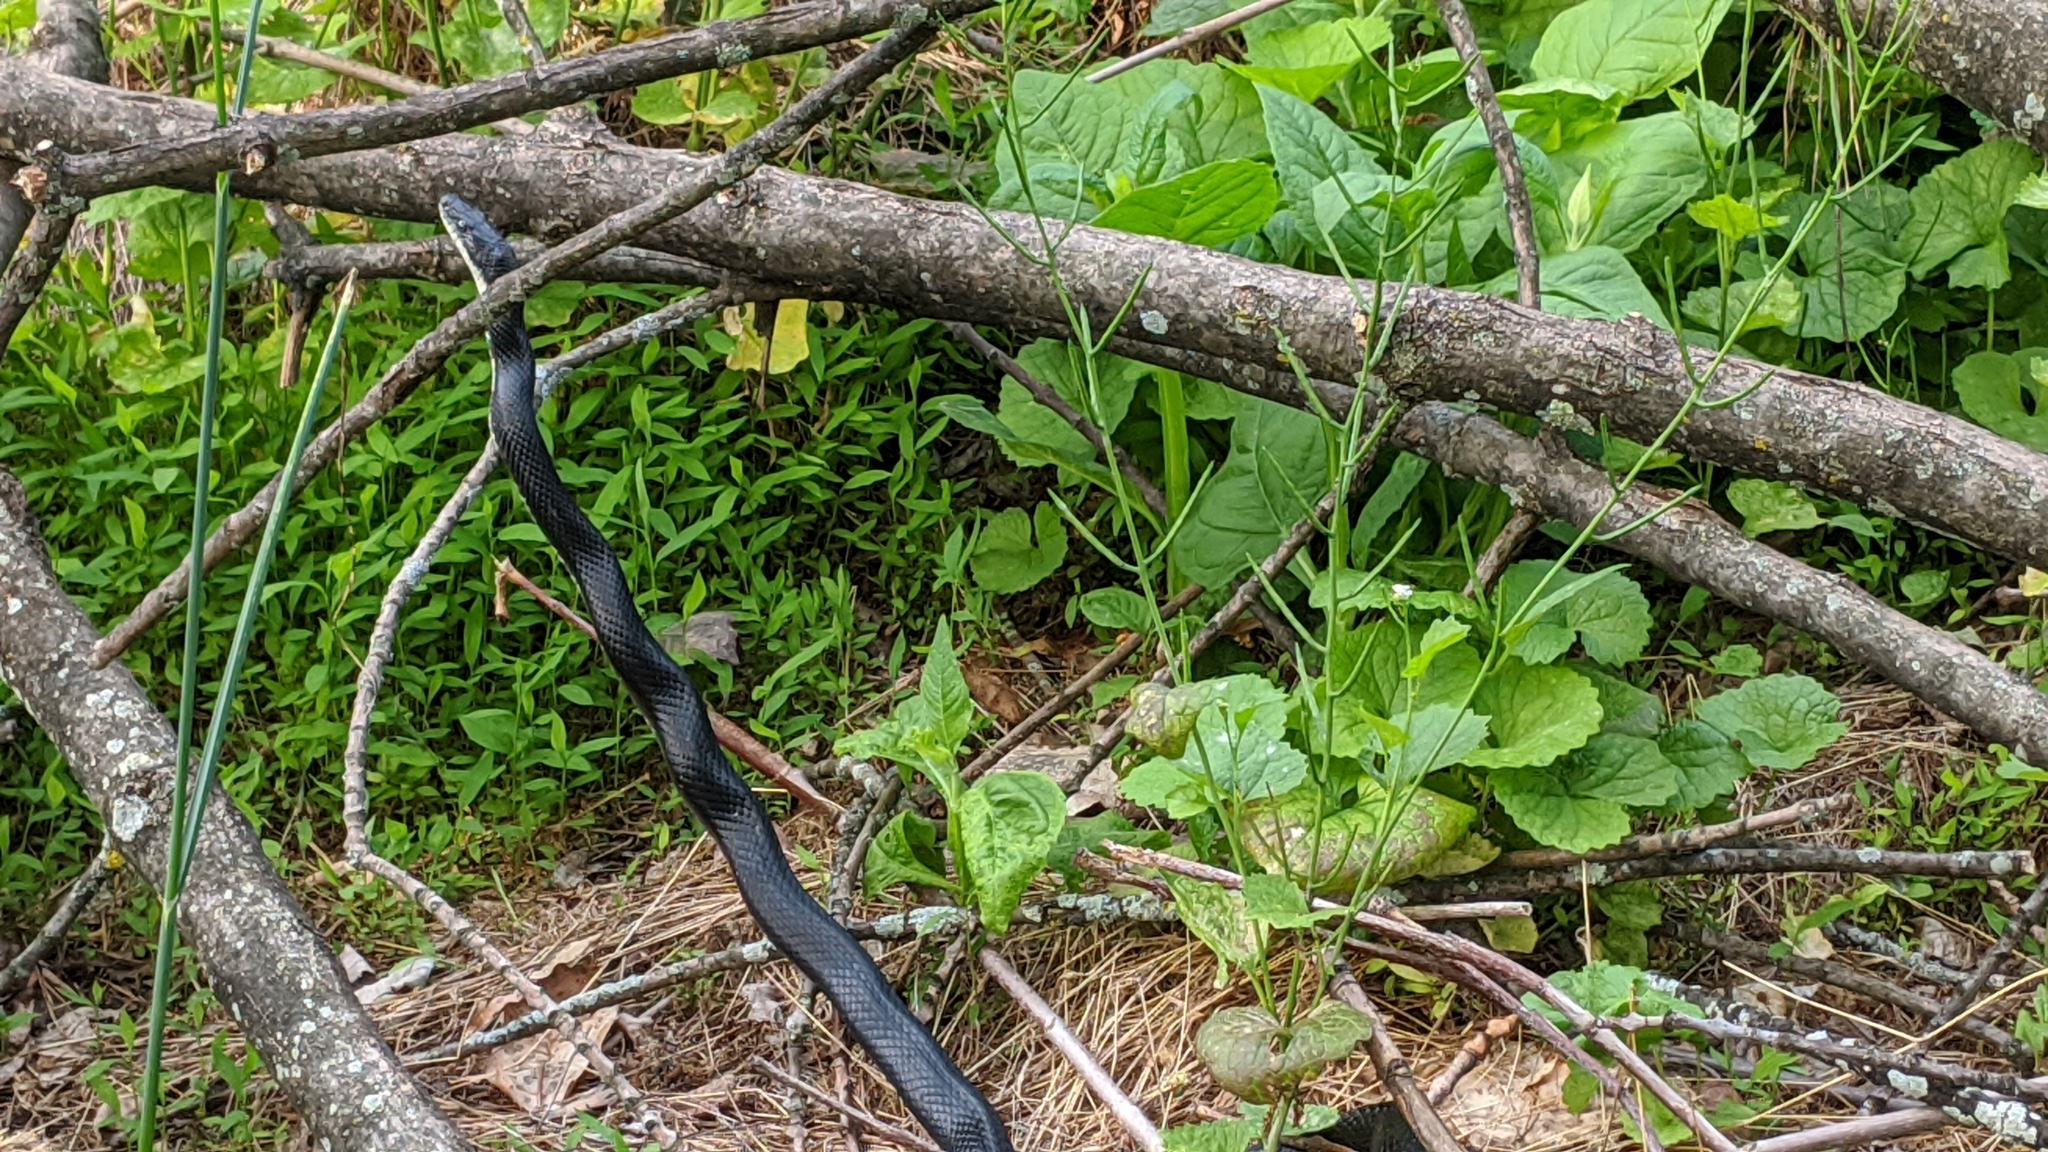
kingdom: Animalia
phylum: Chordata
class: Squamata
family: Colubridae
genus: Pantherophis
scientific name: Pantherophis alleghaniensis
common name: Eastern rat snake
